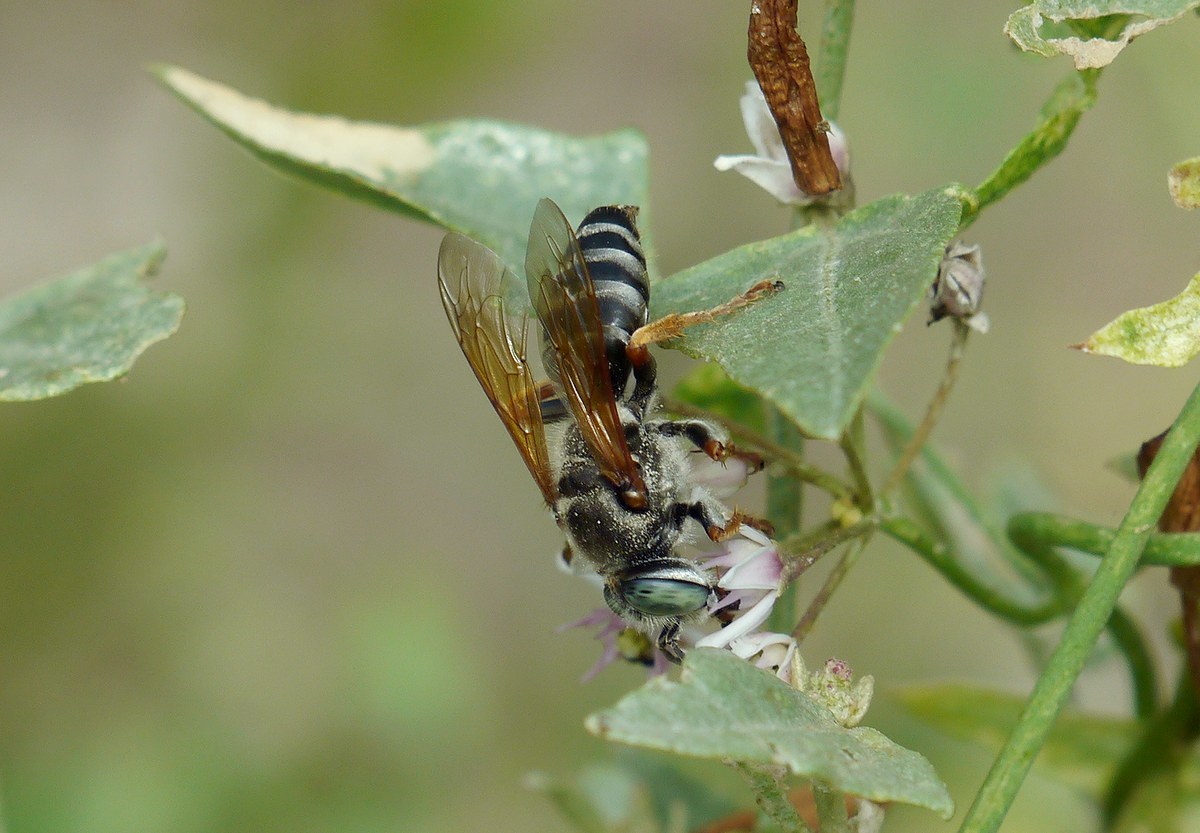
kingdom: Animalia
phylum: Arthropoda
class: Insecta
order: Hymenoptera
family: Crabronidae
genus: Tachytes
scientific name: Tachytes etruscus
